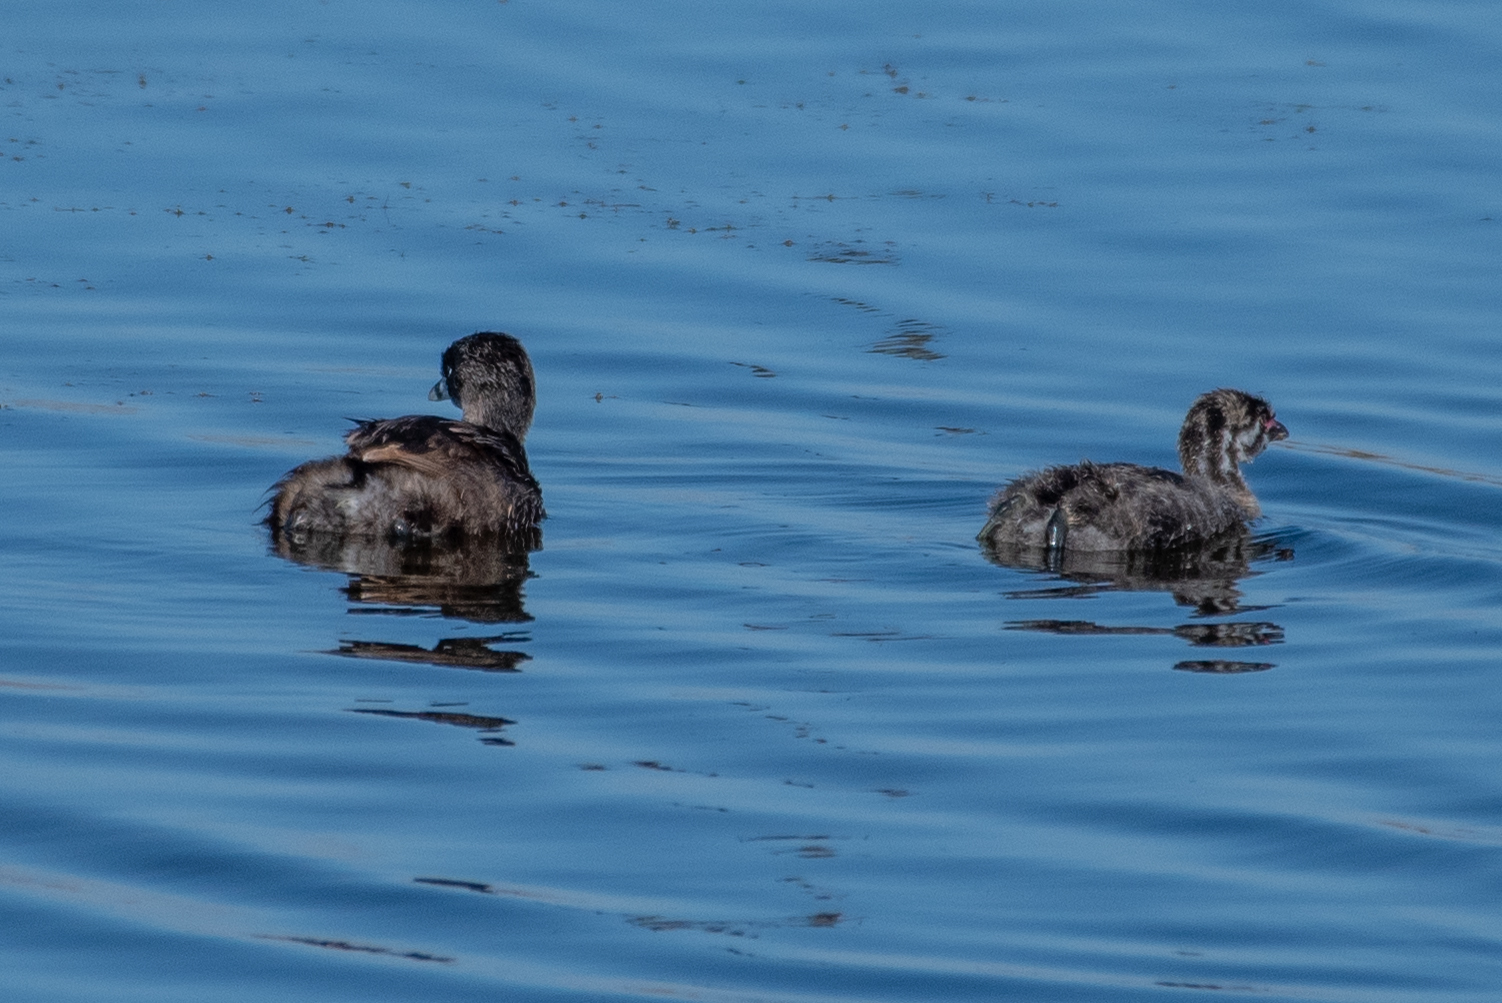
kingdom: Animalia
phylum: Chordata
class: Aves
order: Podicipediformes
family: Podicipedidae
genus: Podilymbus
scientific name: Podilymbus podiceps
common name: Pied-billed grebe
